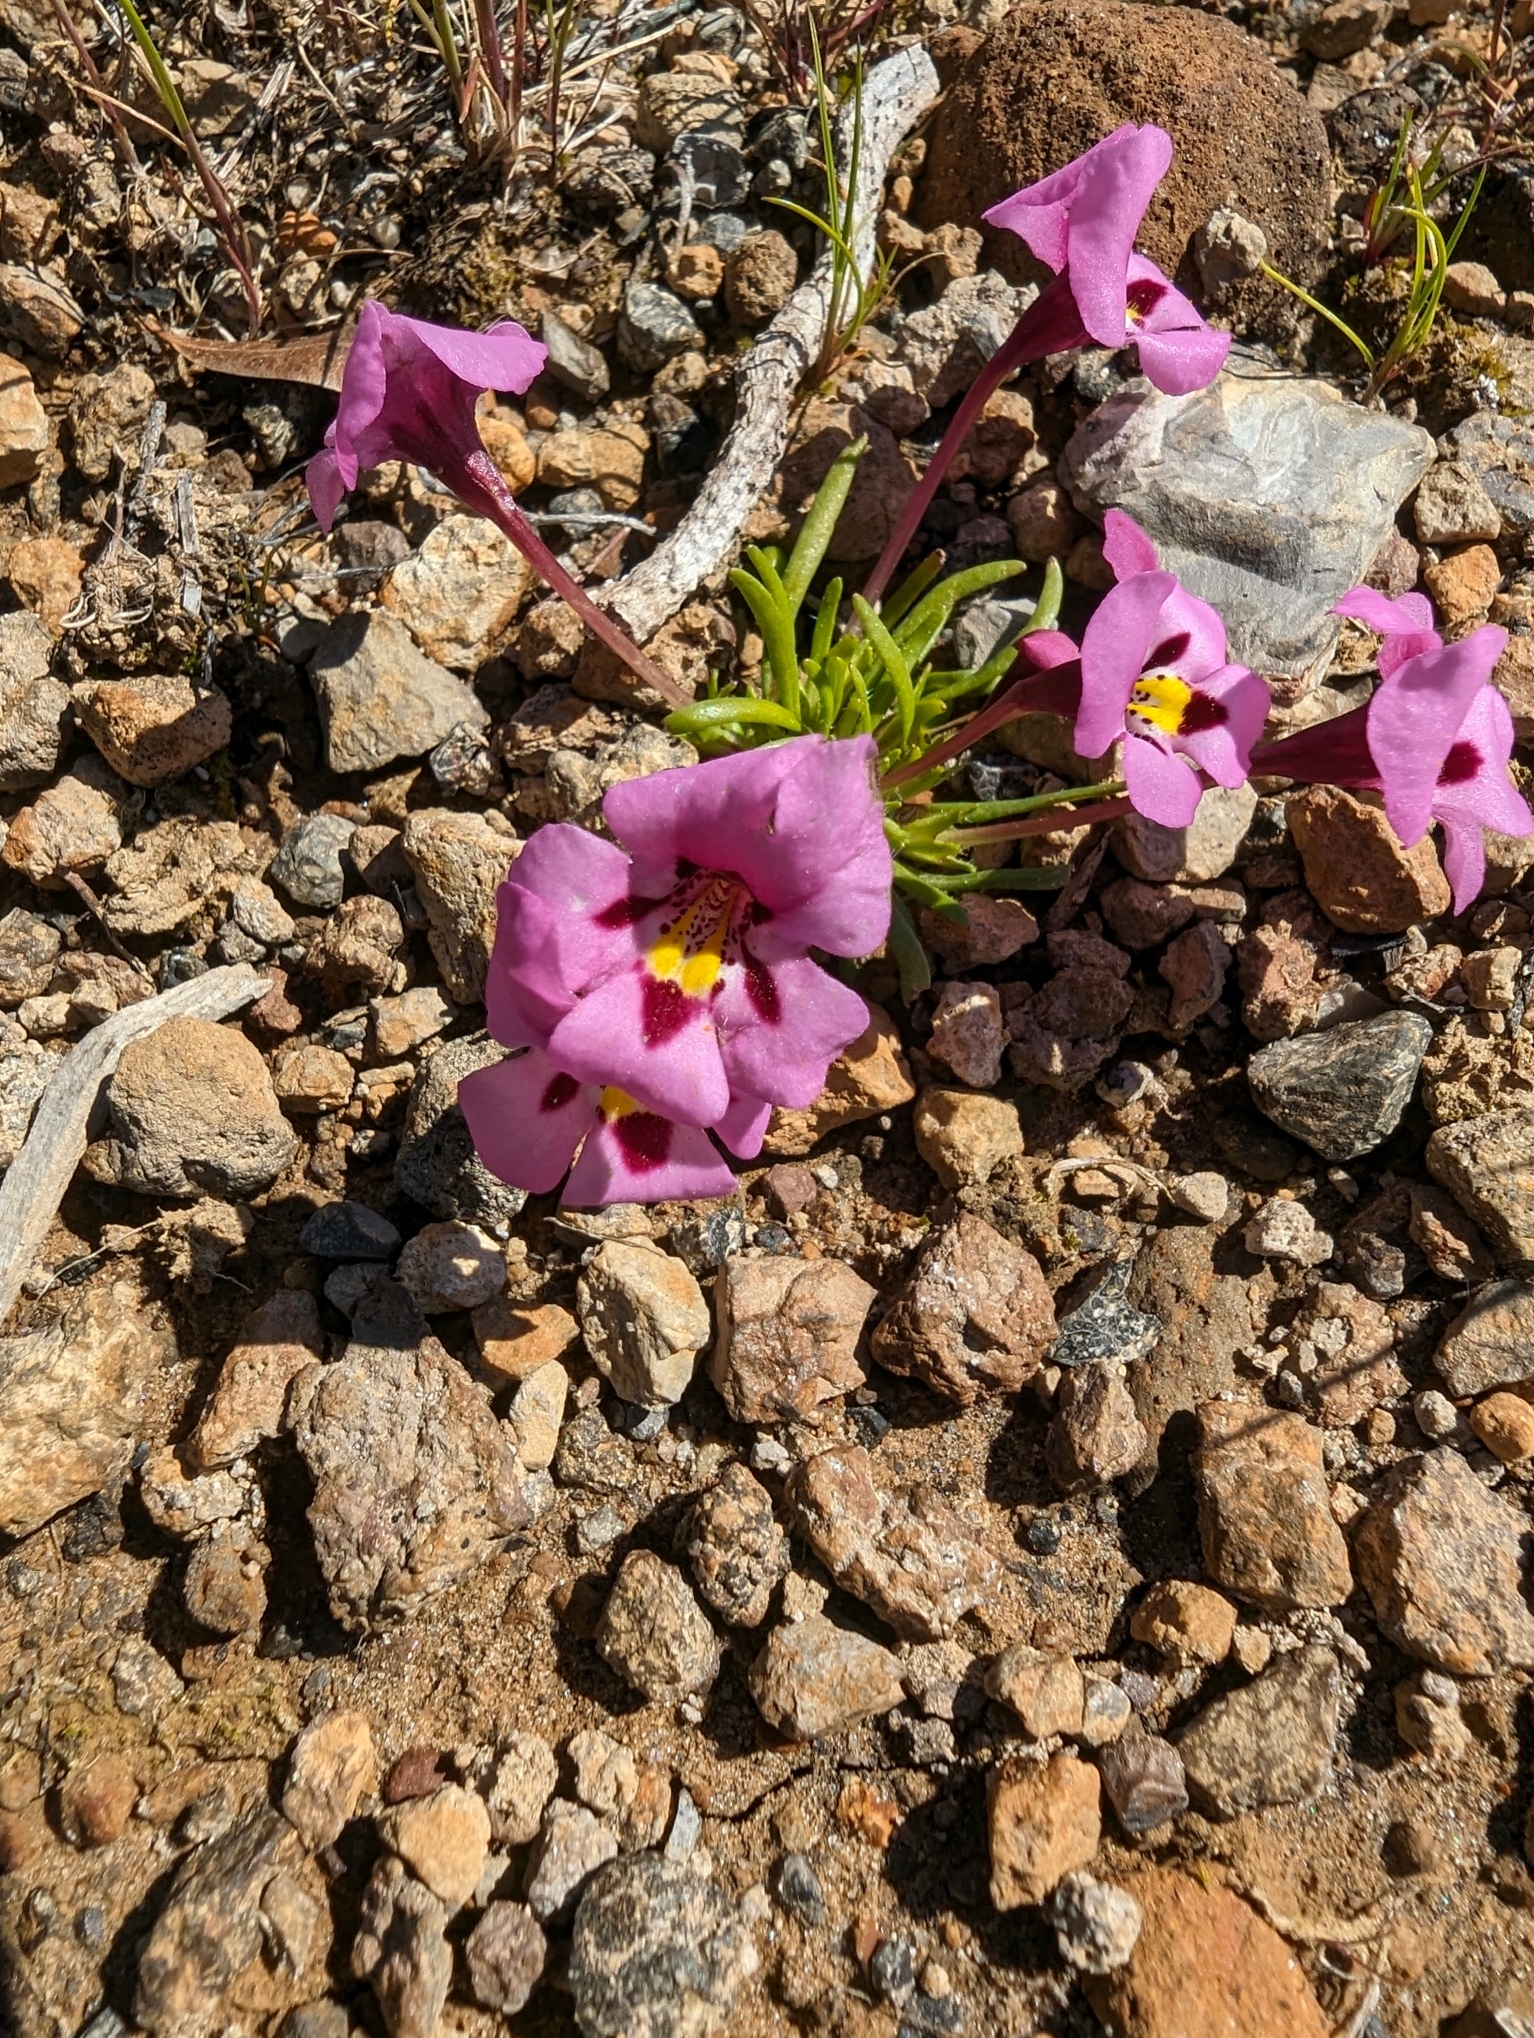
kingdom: Plantae
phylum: Tracheophyta
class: Magnoliopsida
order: Lamiales
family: Phrymaceae
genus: Diplacus
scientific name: Diplacus angustatus
